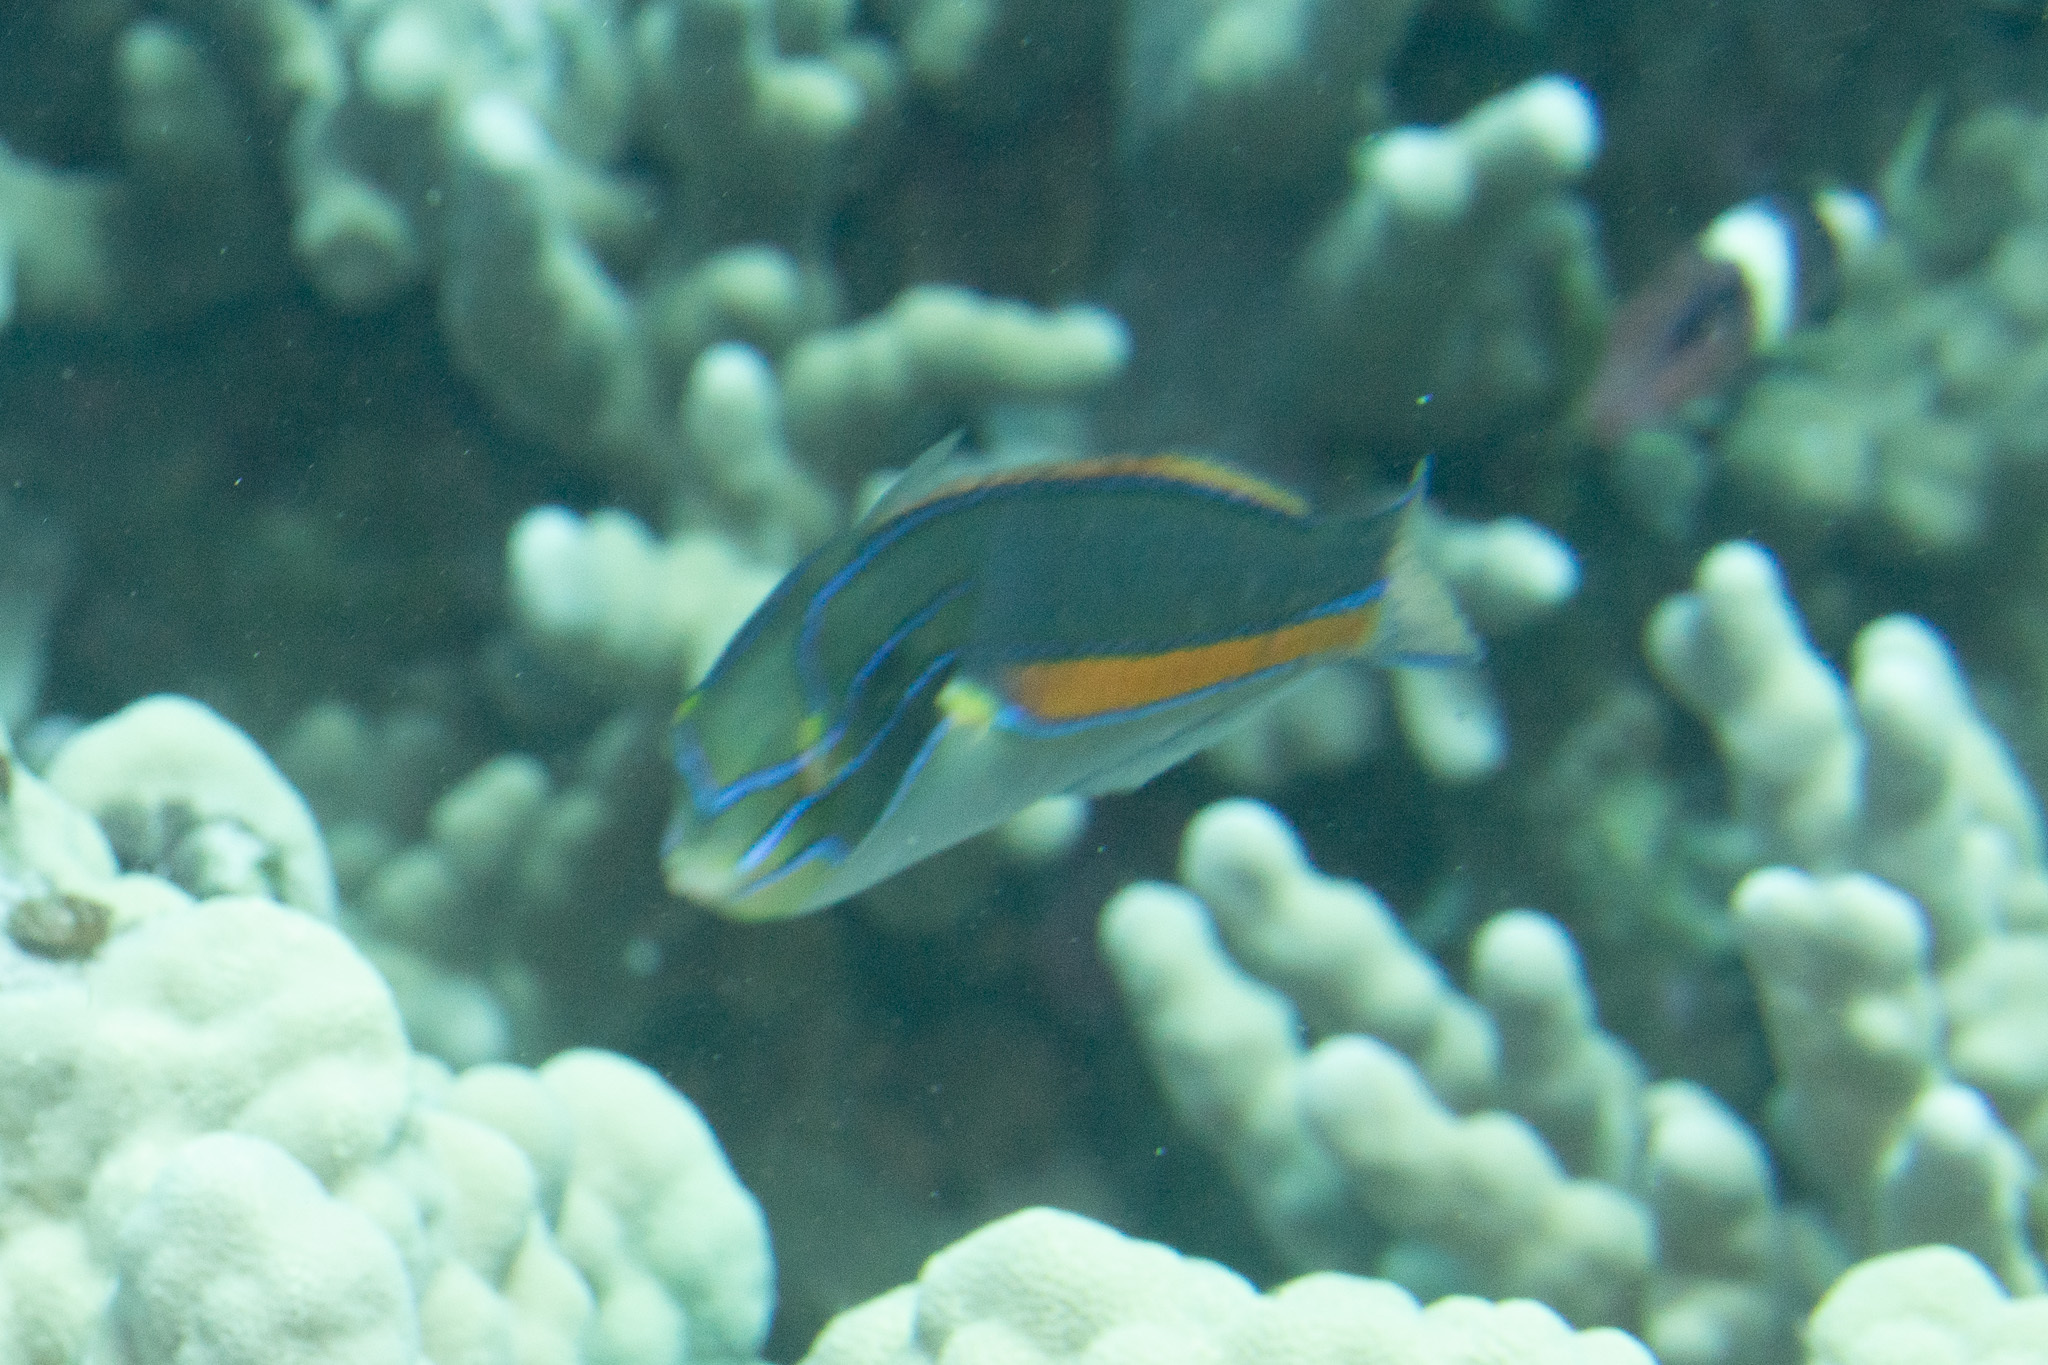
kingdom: Animalia
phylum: Chordata
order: Perciformes
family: Labridae
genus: Stethojulis
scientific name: Stethojulis balteata
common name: Belted wrasse
